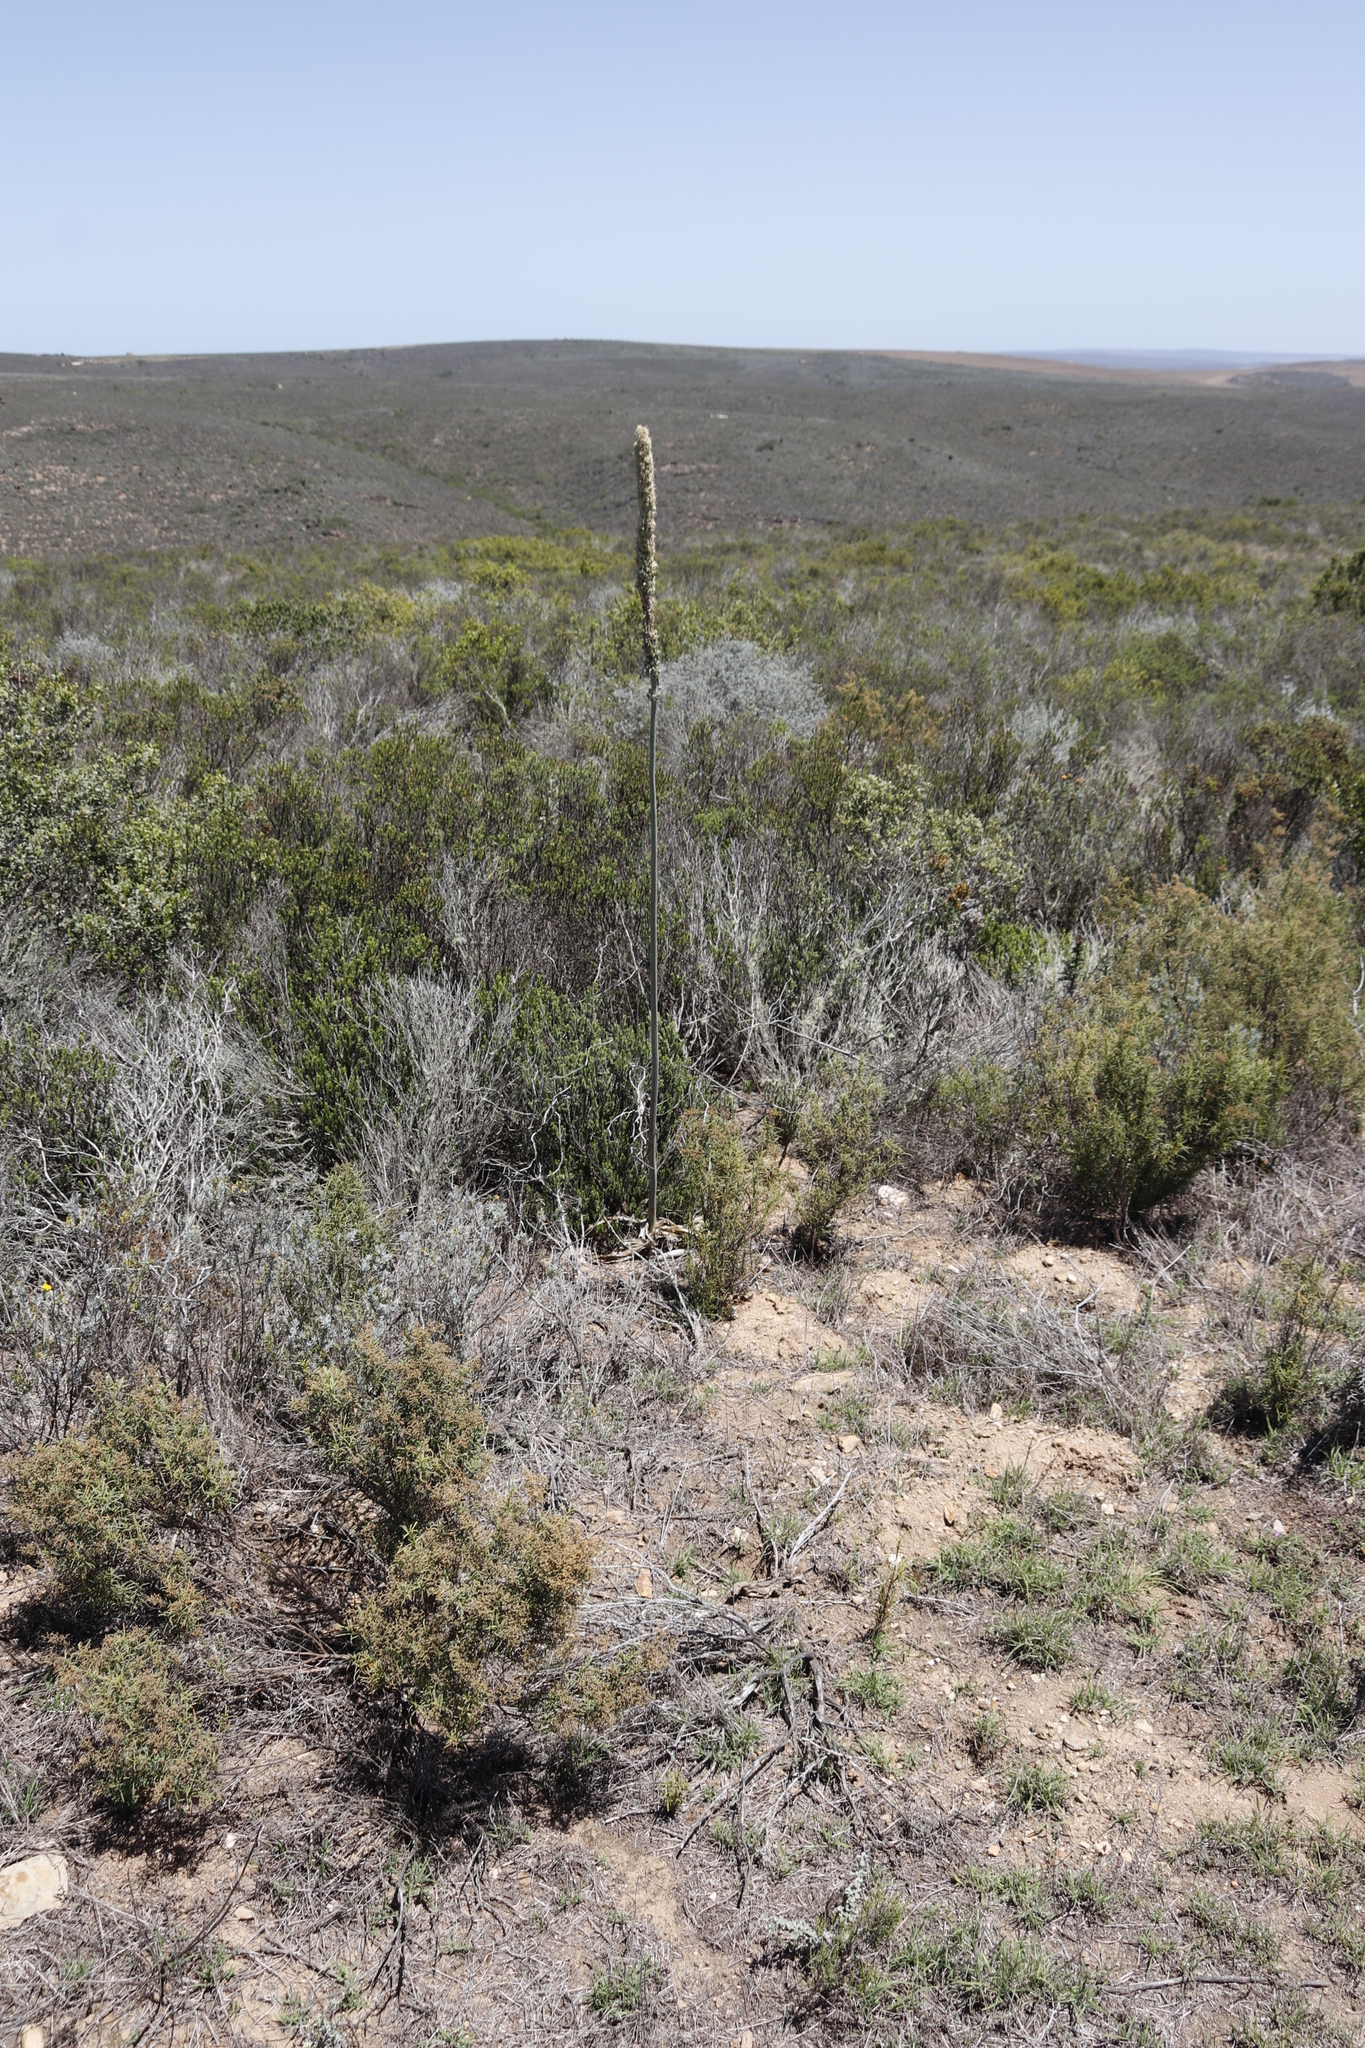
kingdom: Plantae
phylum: Tracheophyta
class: Liliopsida
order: Asparagales
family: Asparagaceae
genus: Drimia
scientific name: Drimia capensis
